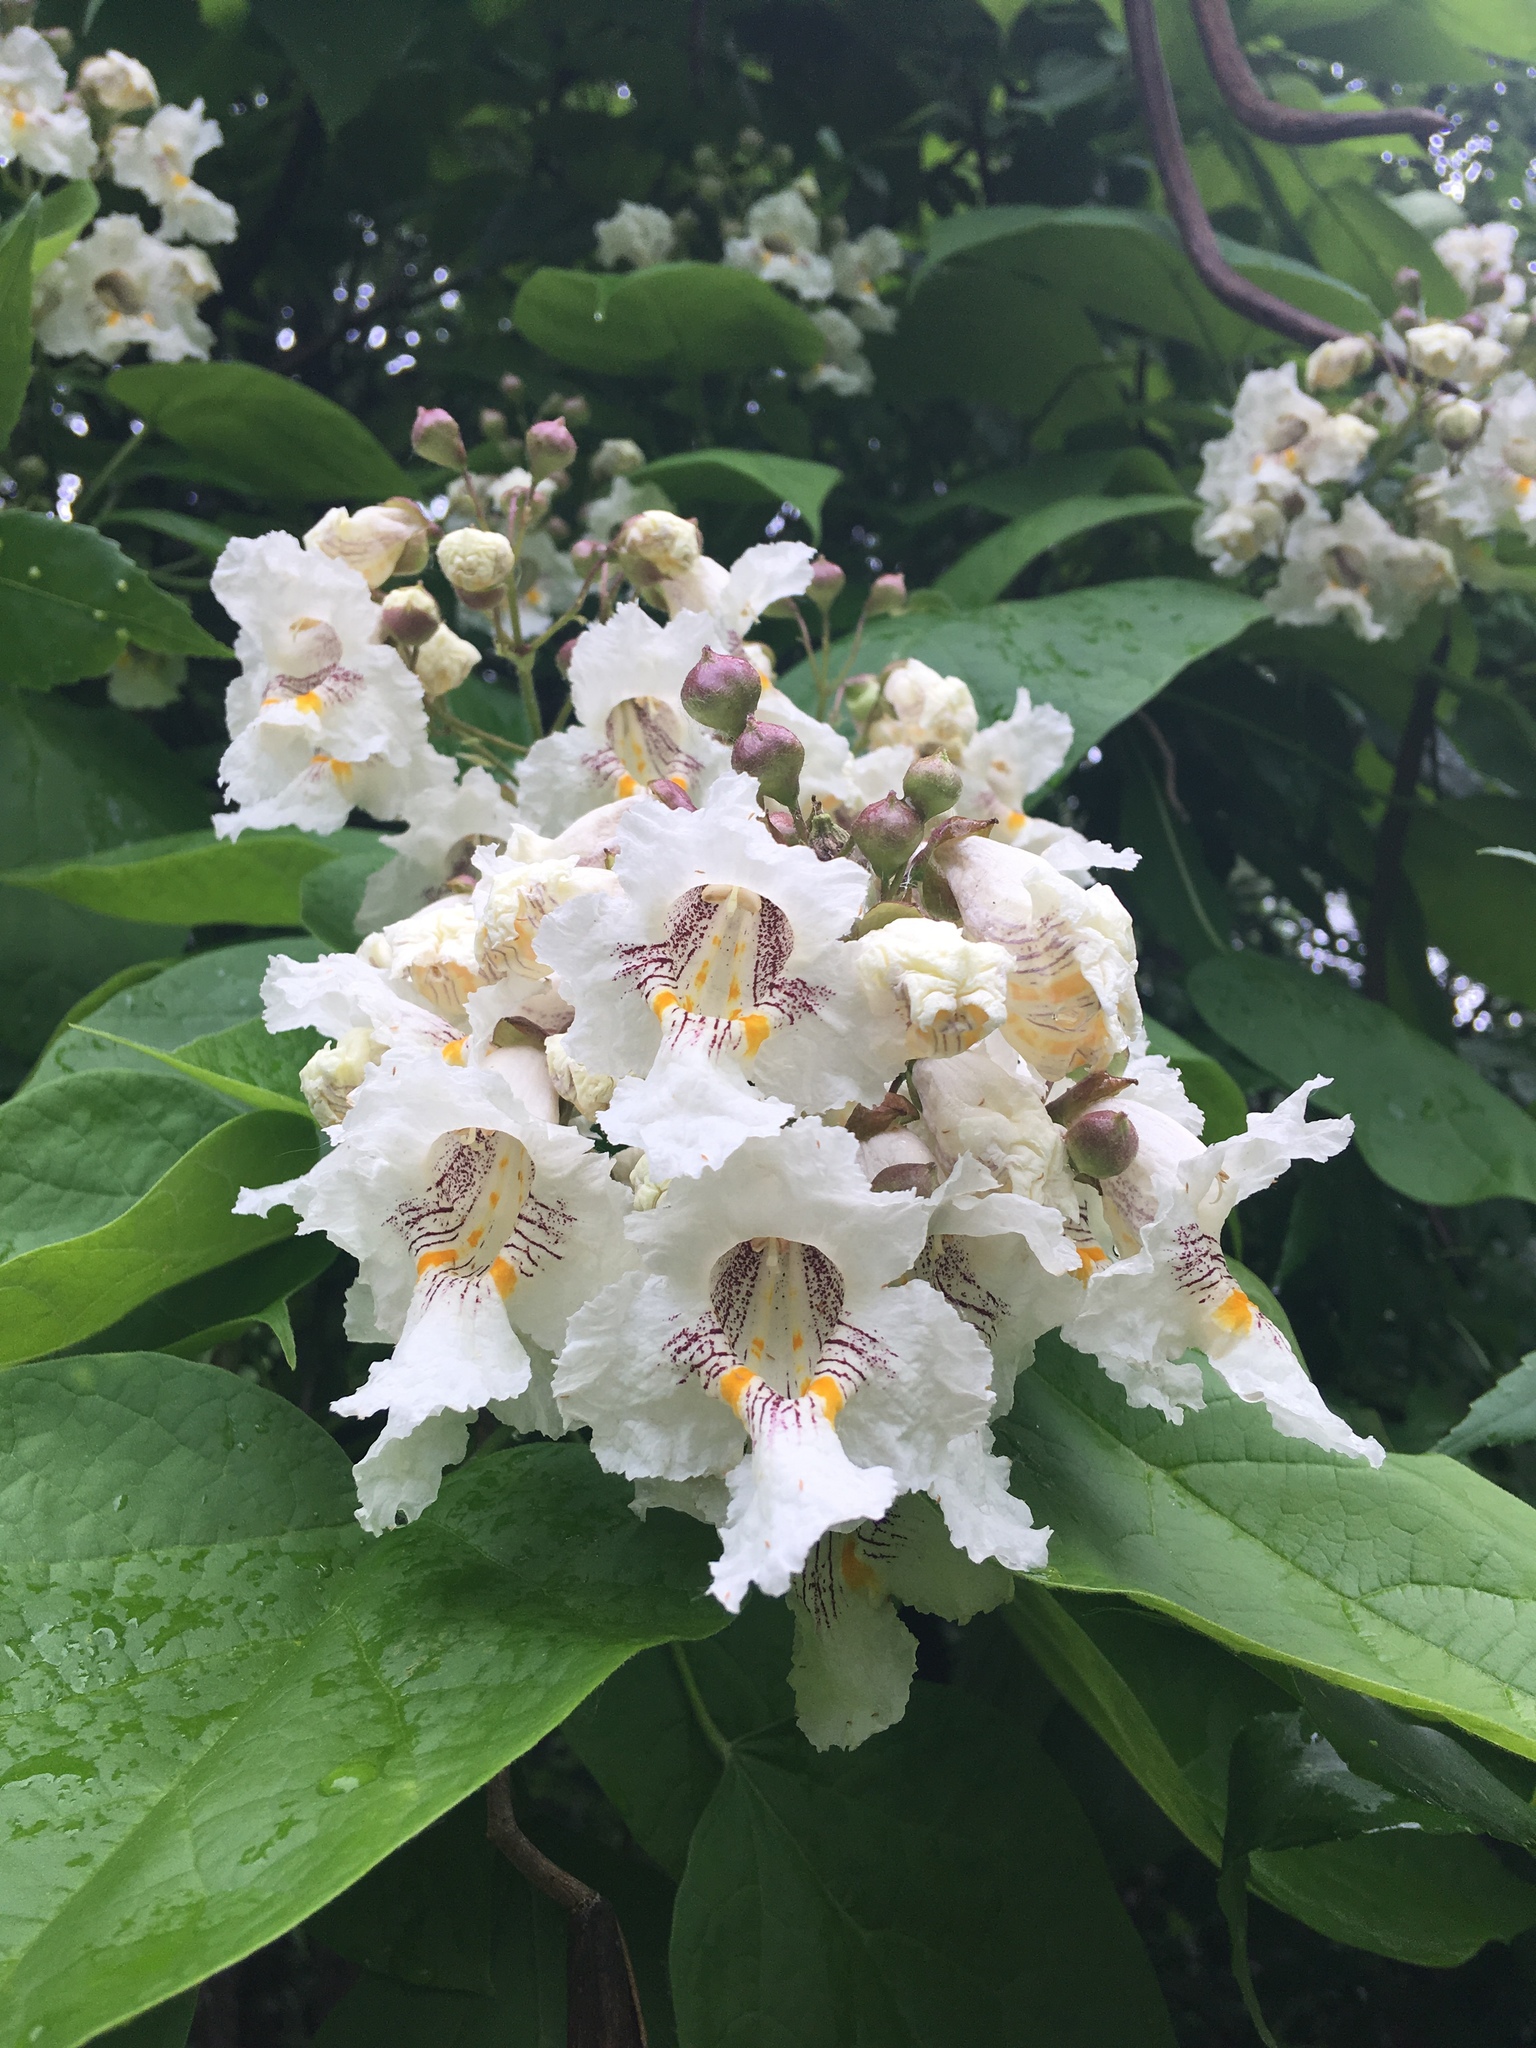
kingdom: Plantae
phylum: Tracheophyta
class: Magnoliopsida
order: Lamiales
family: Bignoniaceae
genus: Catalpa
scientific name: Catalpa speciosa
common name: Northern catalpa
